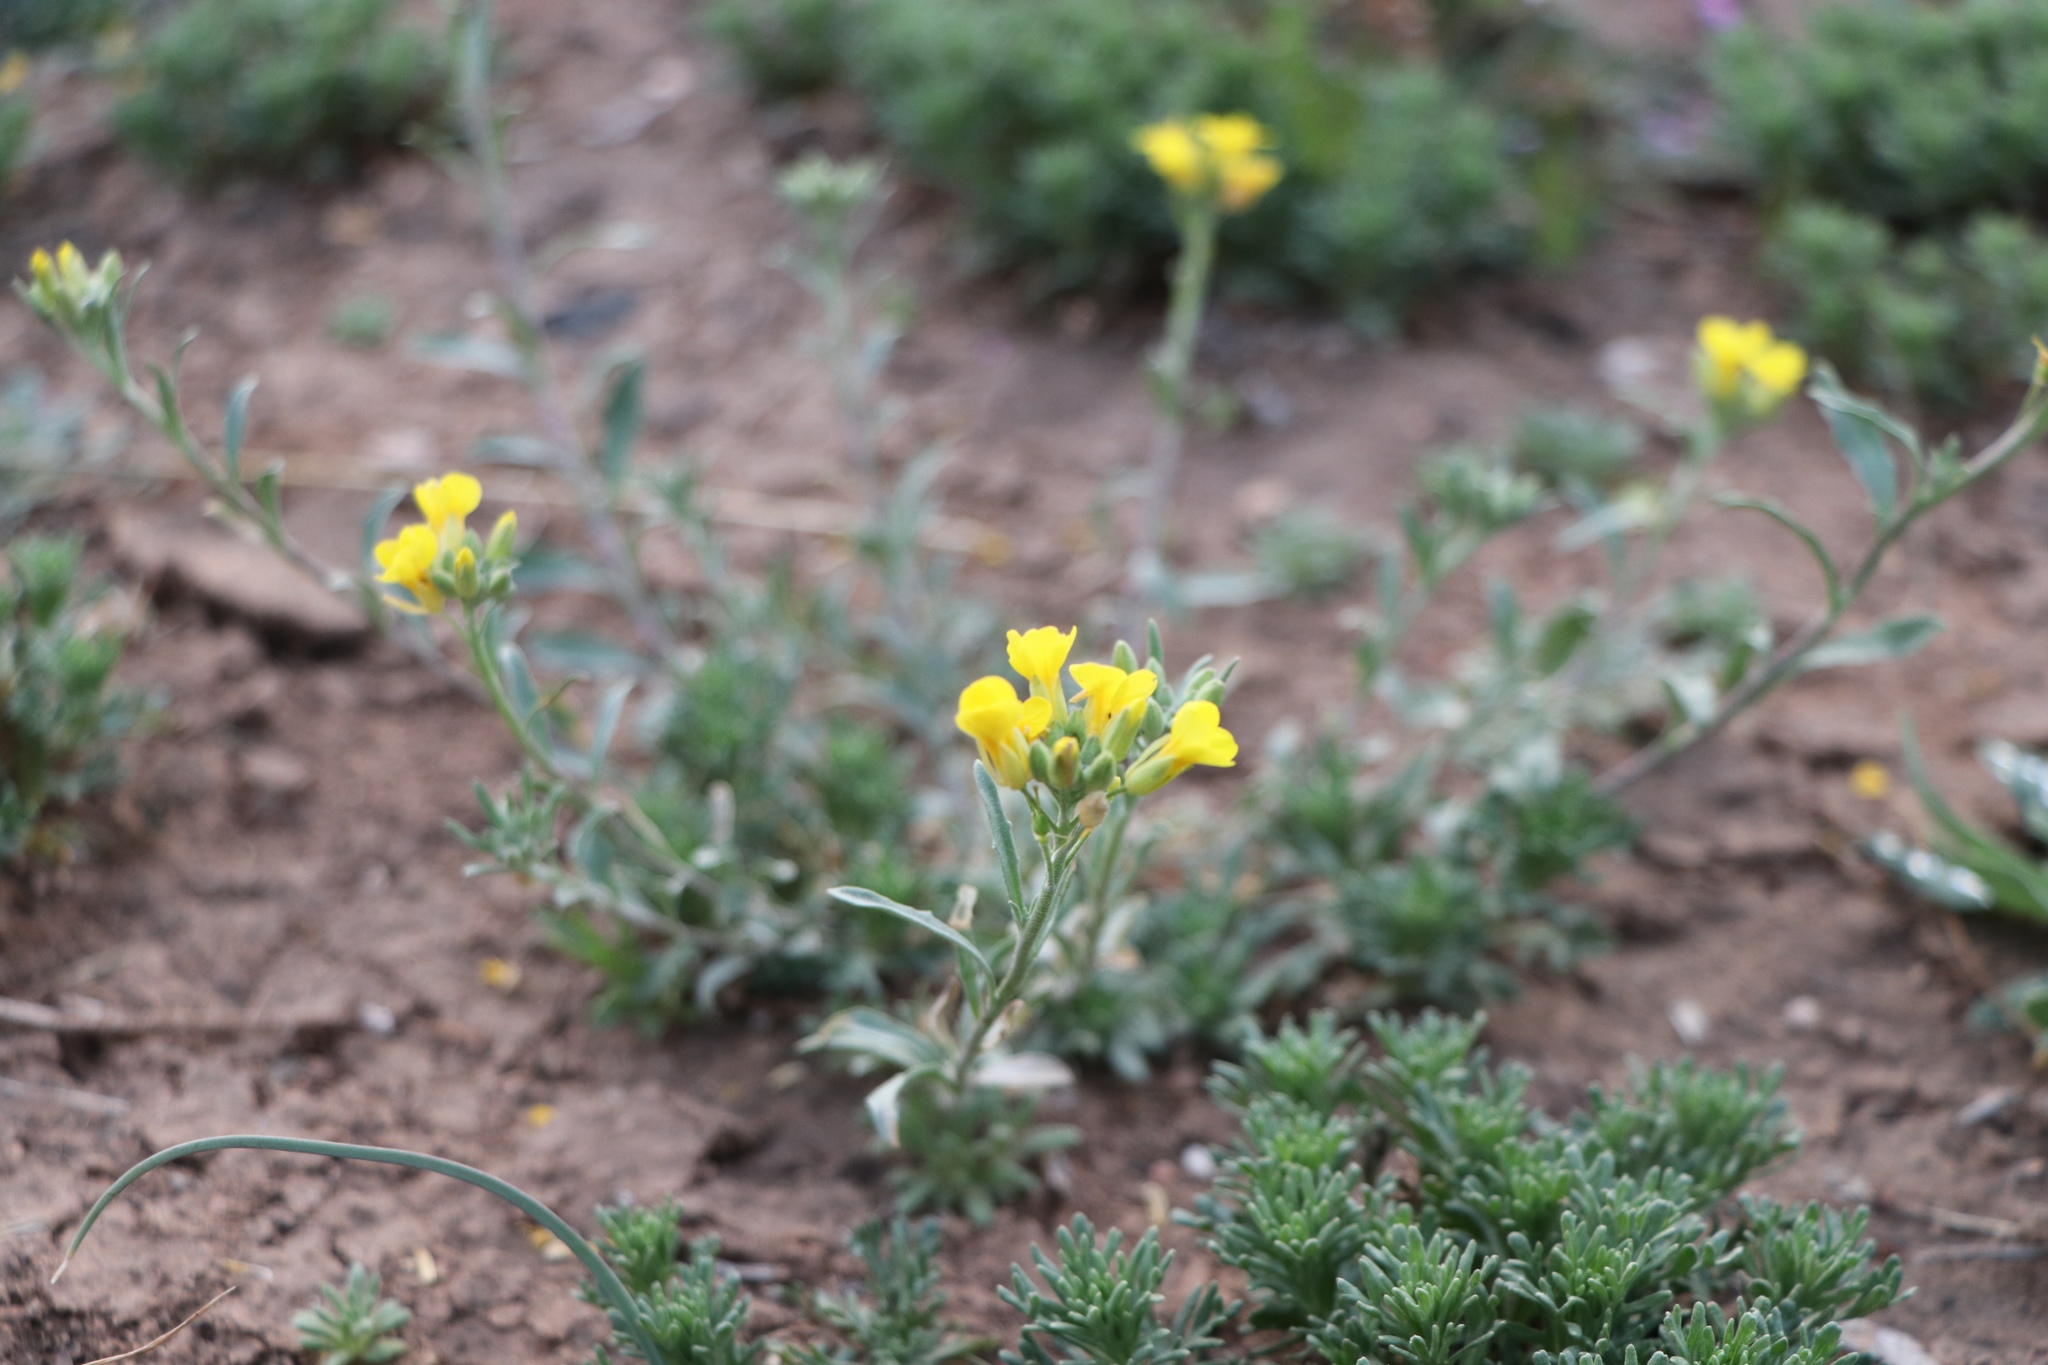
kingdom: Plantae
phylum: Tracheophyta
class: Magnoliopsida
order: Brassicales
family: Brassicaceae
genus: Physaria
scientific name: Physaria gordonii
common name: Gordon's bladderpod
